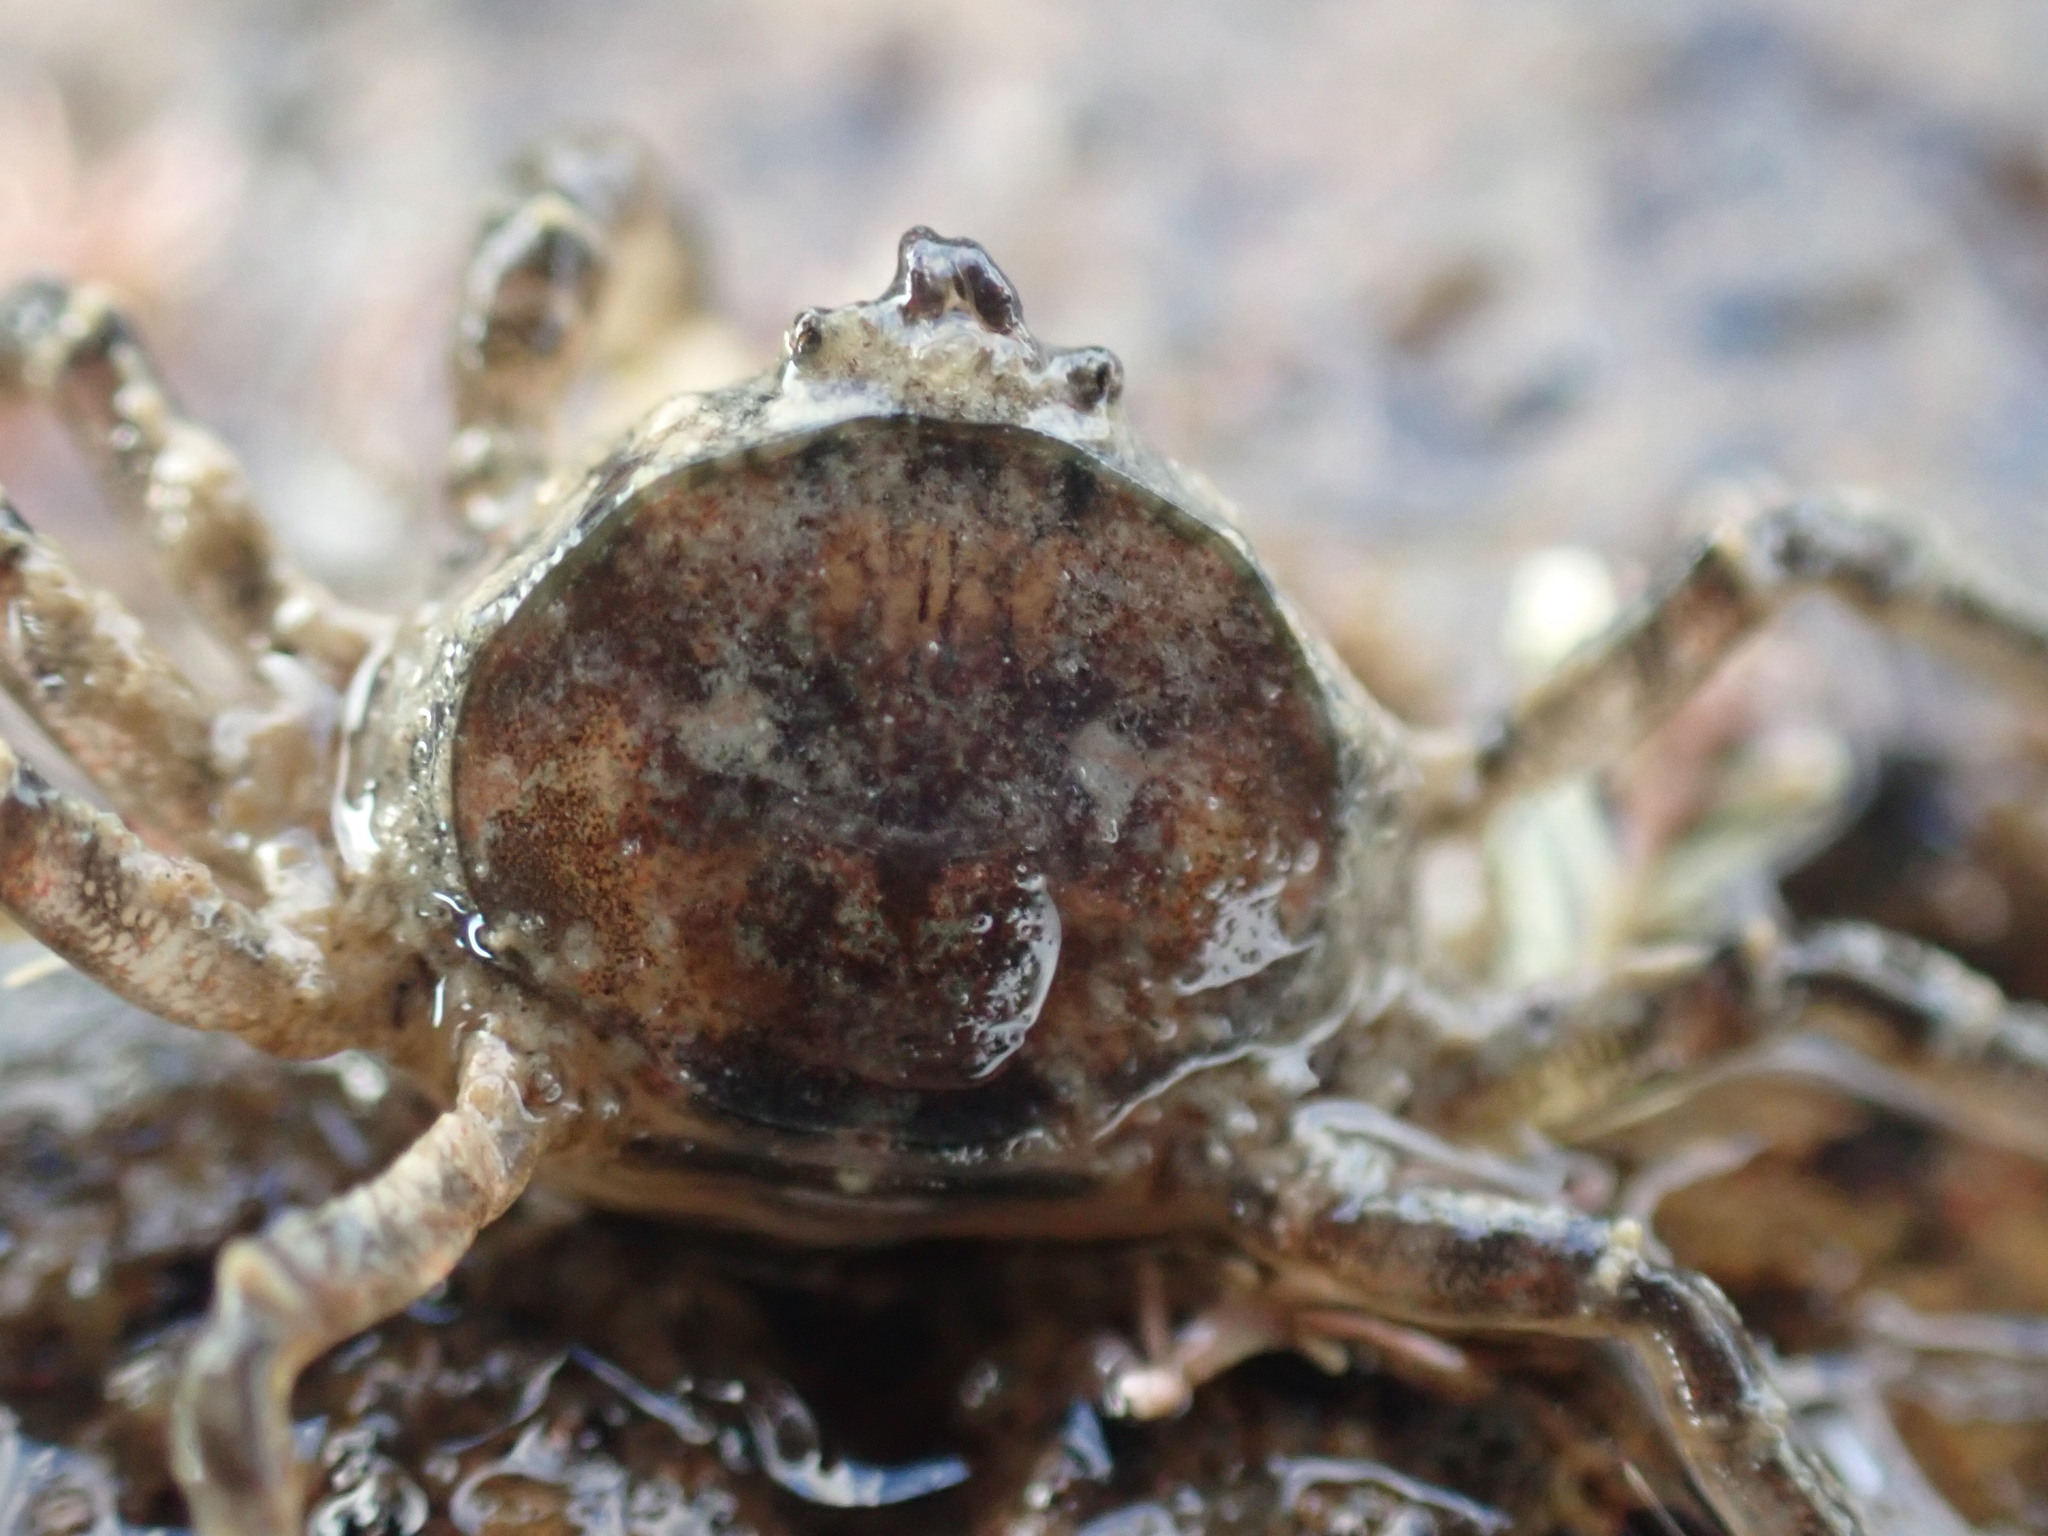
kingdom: Animalia
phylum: Arthropoda
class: Malacostraca
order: Decapoda
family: Hymenosomatidae
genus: Halicarcinus
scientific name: Halicarcinus quoyi
